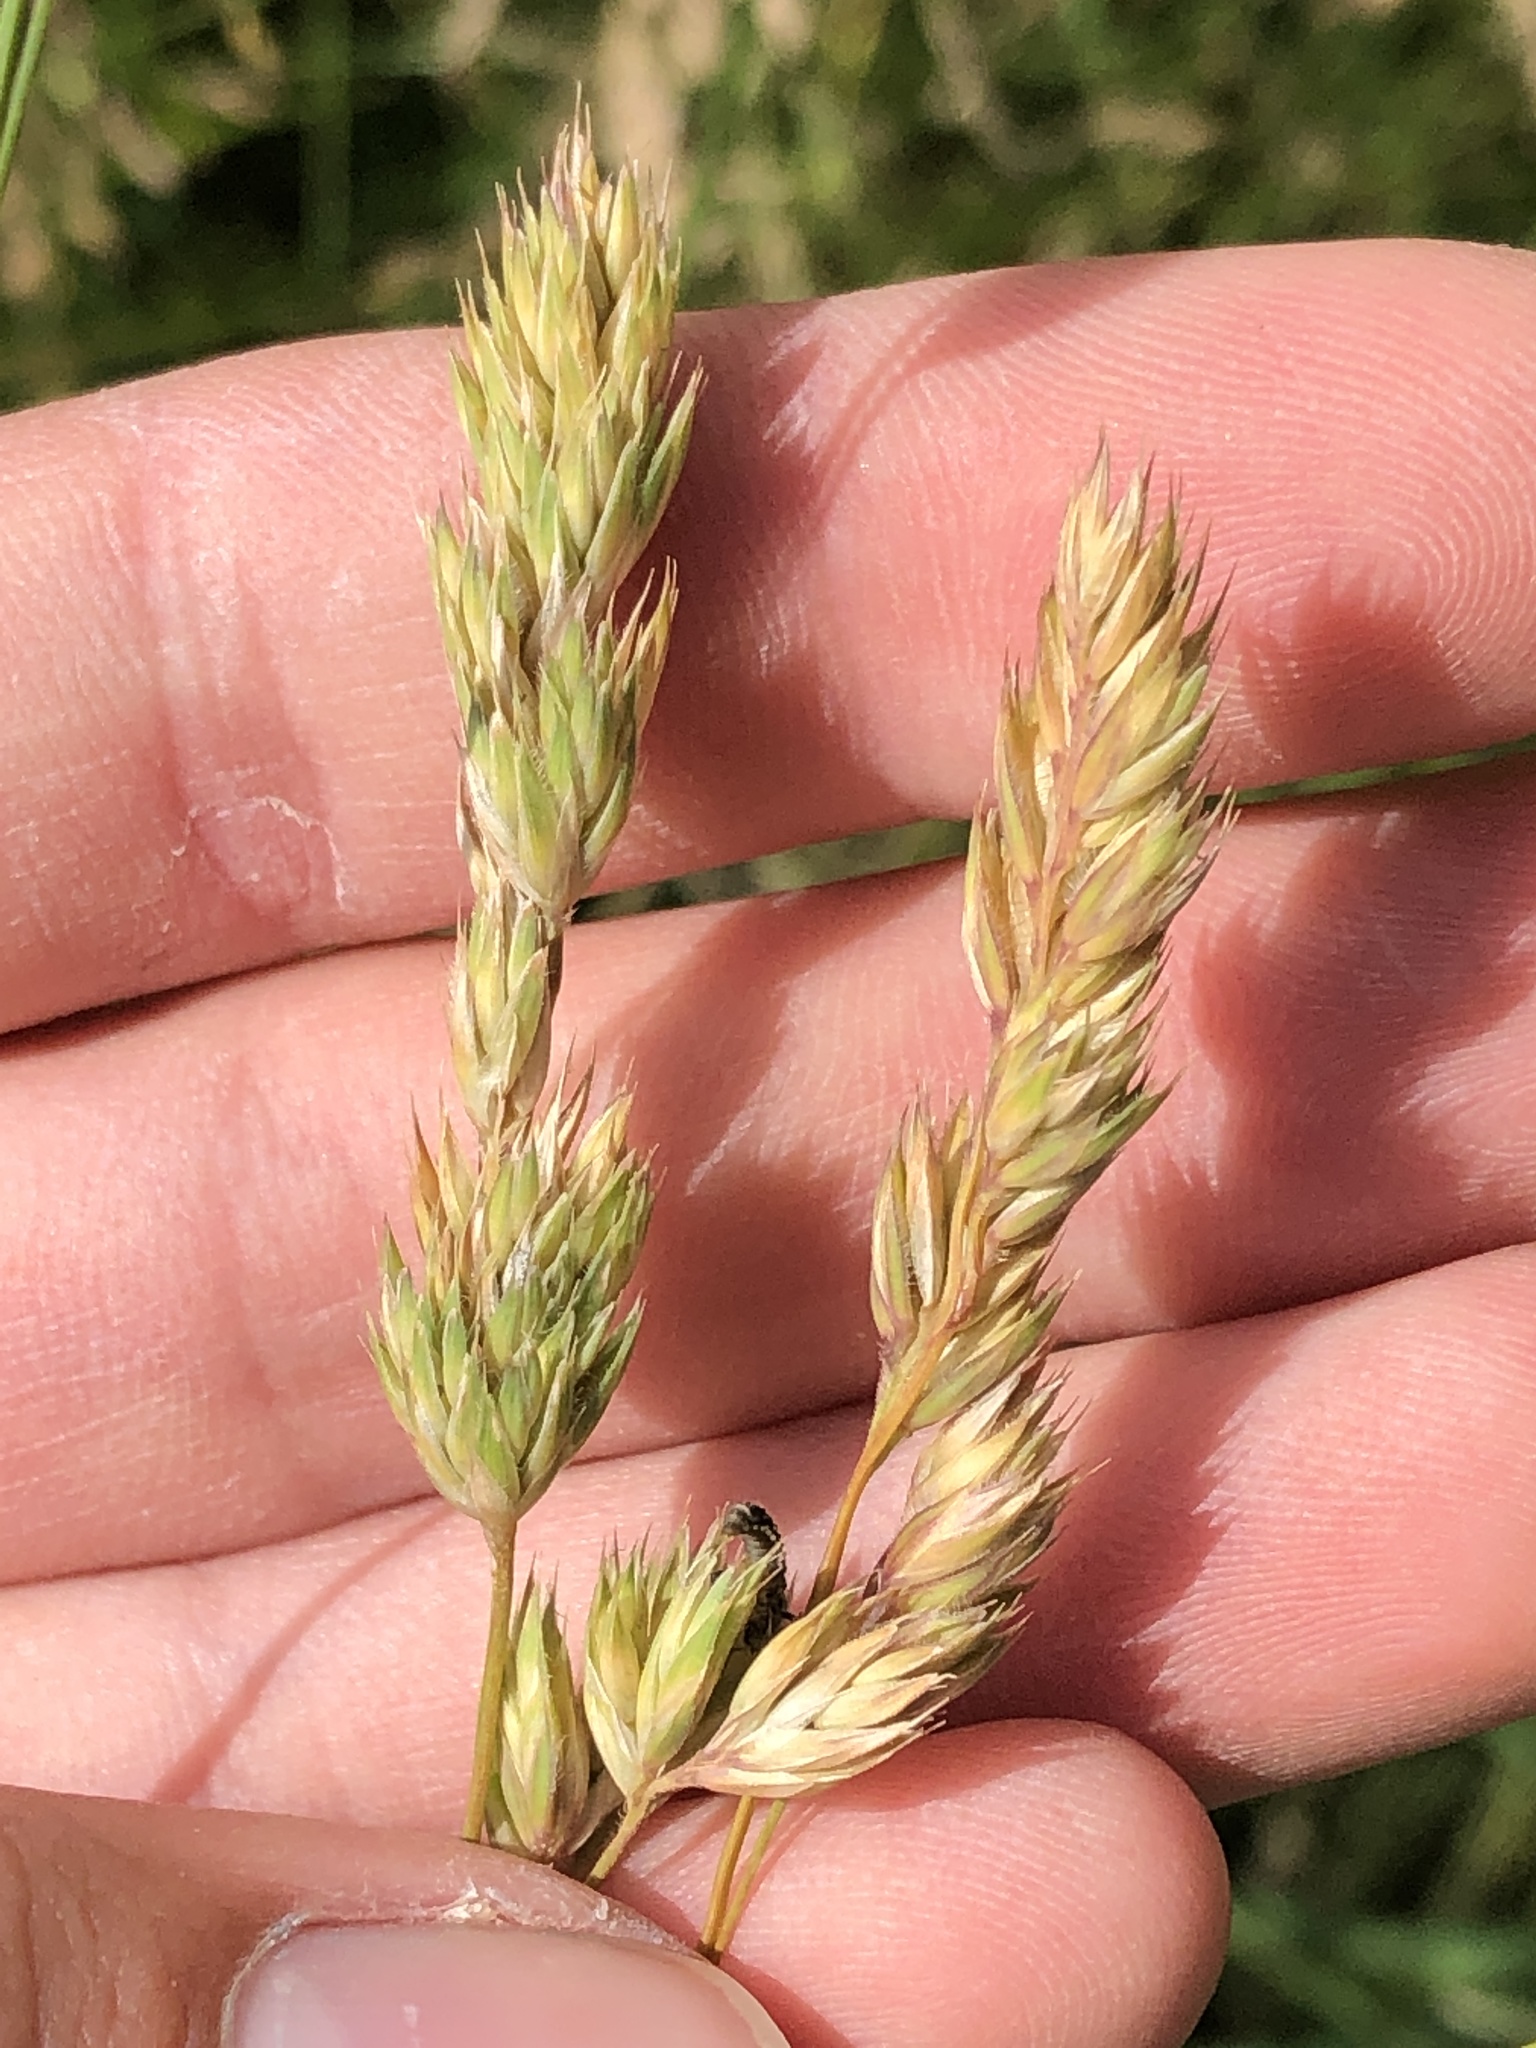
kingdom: Plantae
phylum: Tracheophyta
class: Liliopsida
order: Poales
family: Poaceae
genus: Dactylis
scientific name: Dactylis glomerata
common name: Orchardgrass
